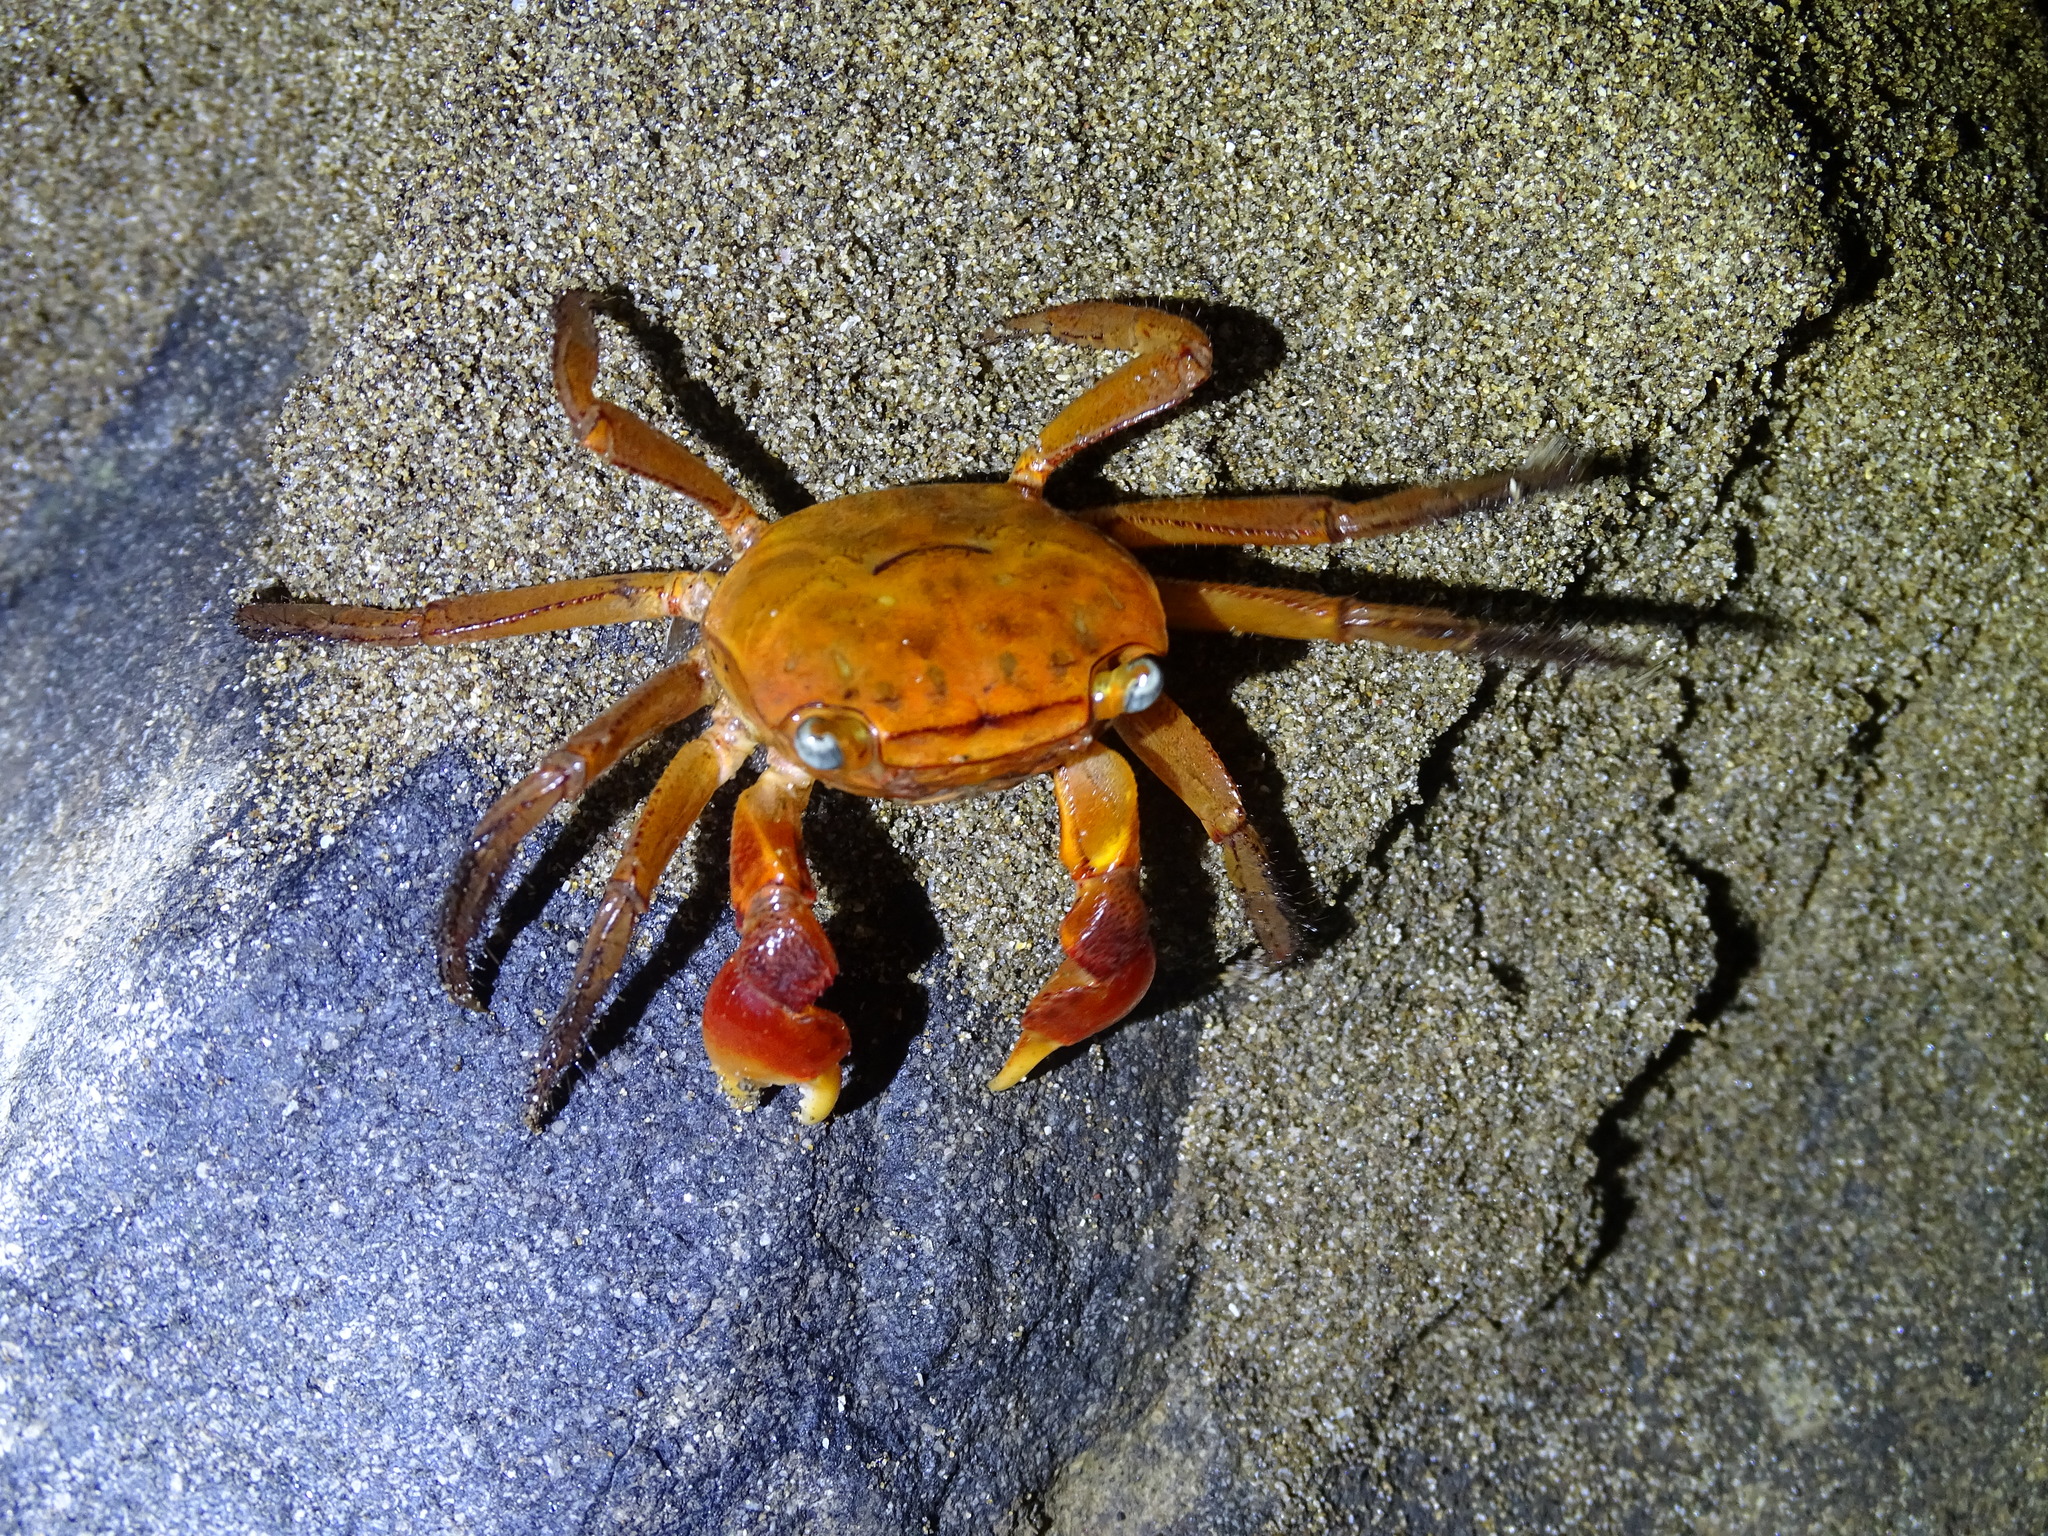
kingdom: Animalia
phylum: Arthropoda
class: Malacostraca
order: Decapoda
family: Sesarmidae
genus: Chiromantes
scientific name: Chiromantes haematocheir
